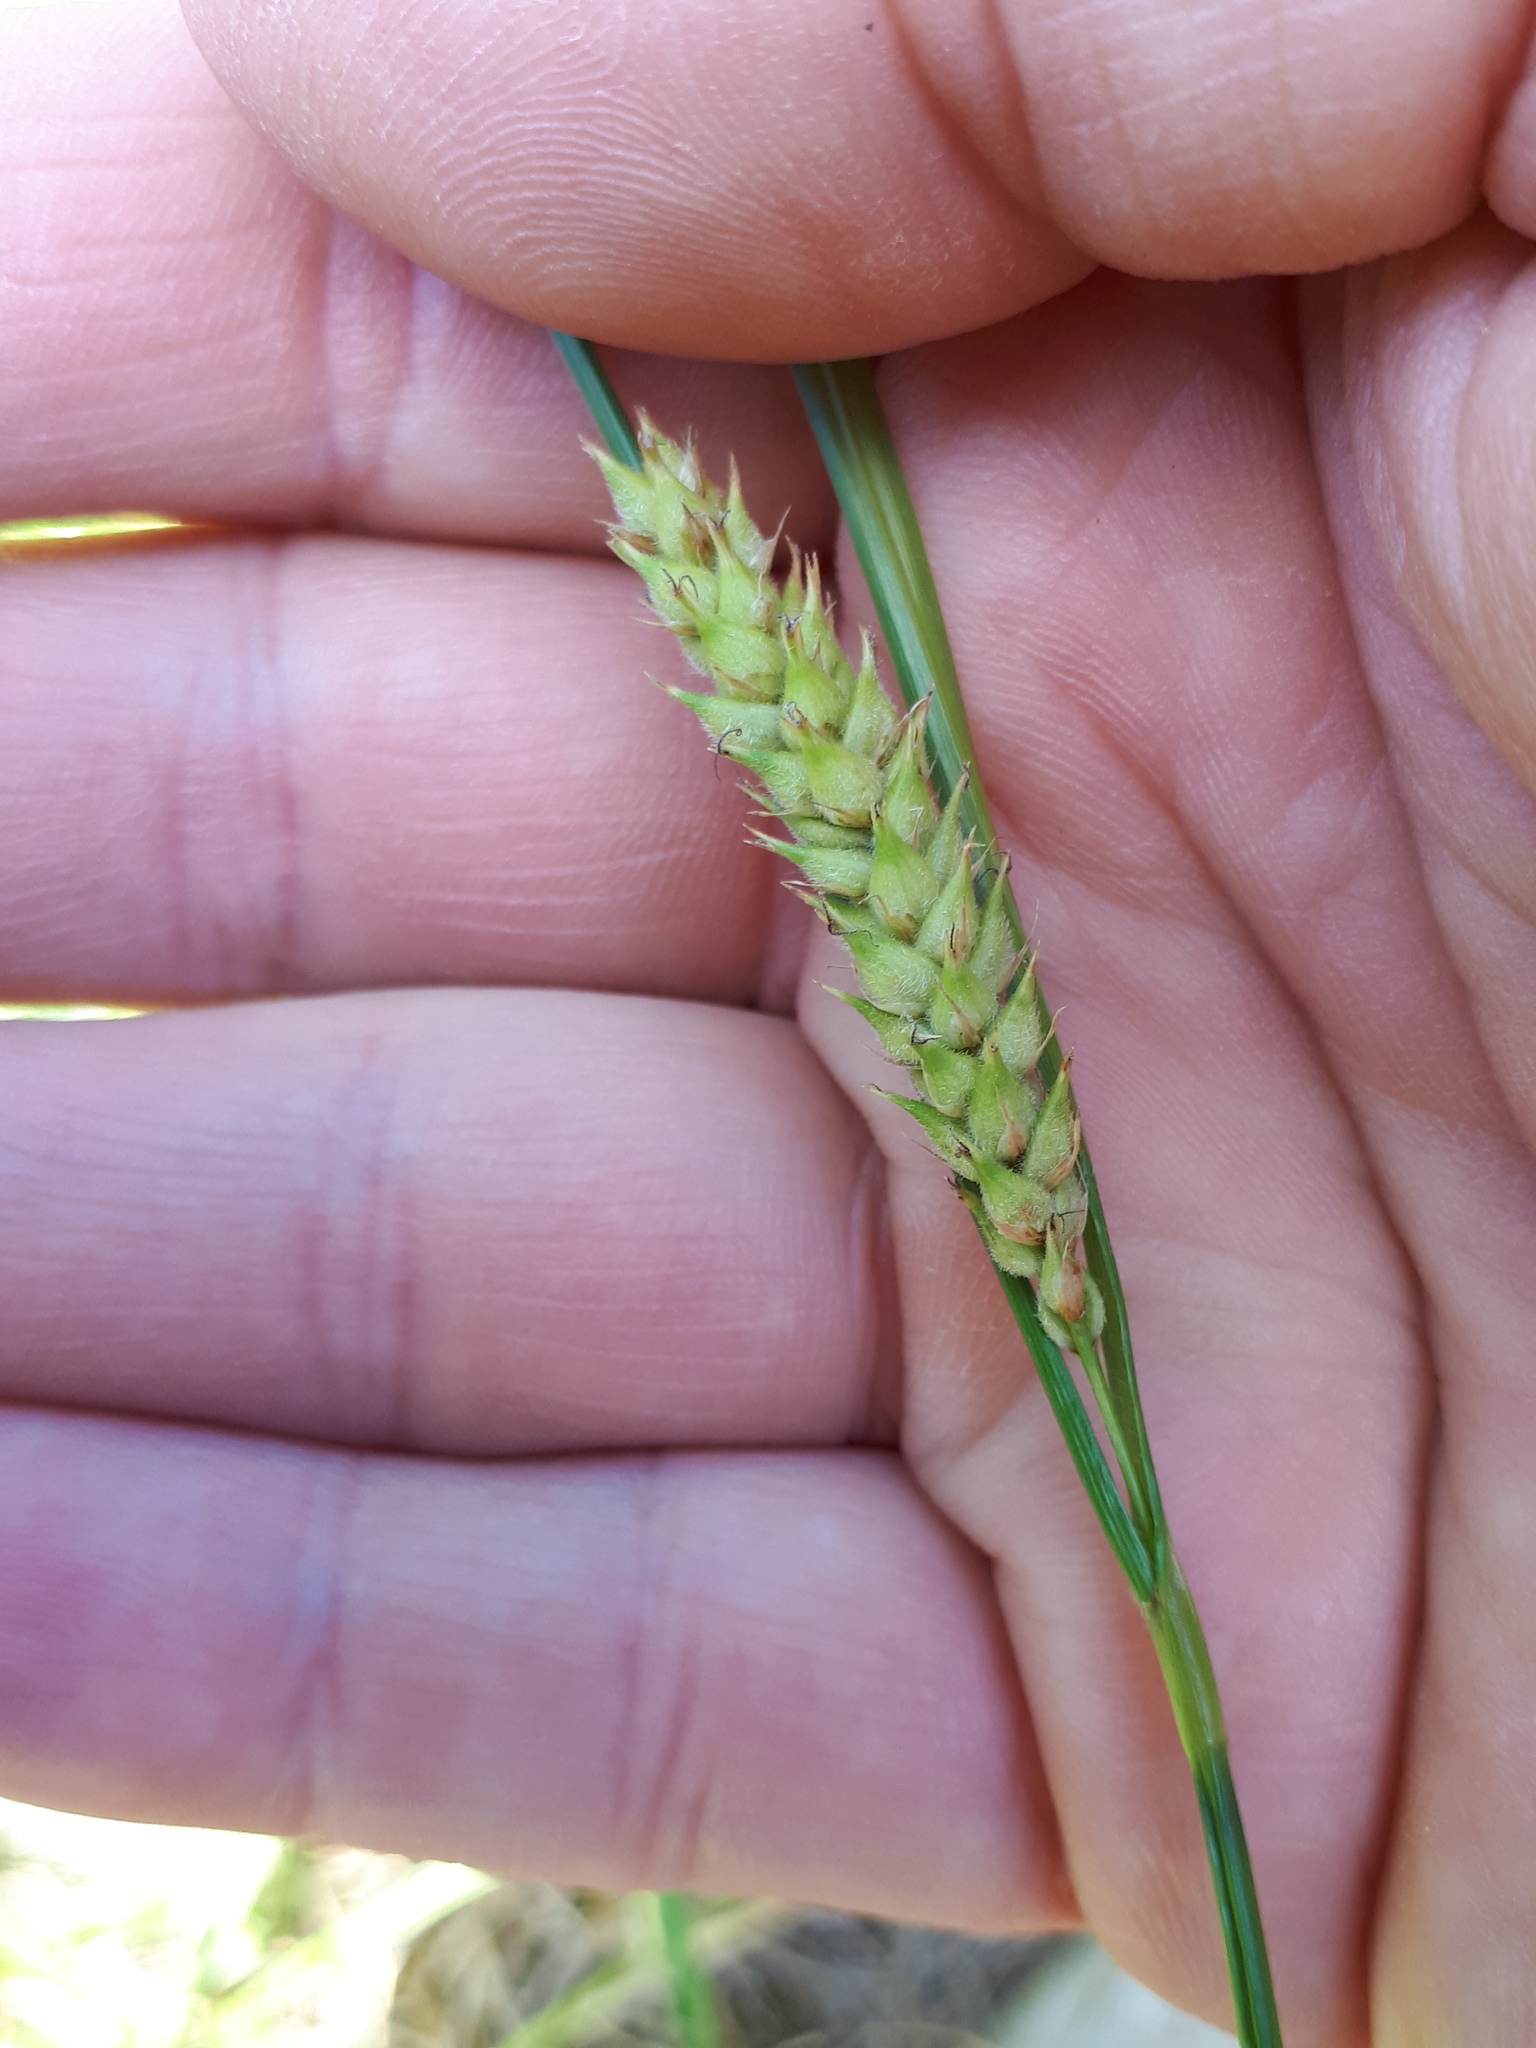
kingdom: Plantae
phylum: Tracheophyta
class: Liliopsida
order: Poales
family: Cyperaceae
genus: Carex
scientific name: Carex hirta
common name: Hairy sedge
